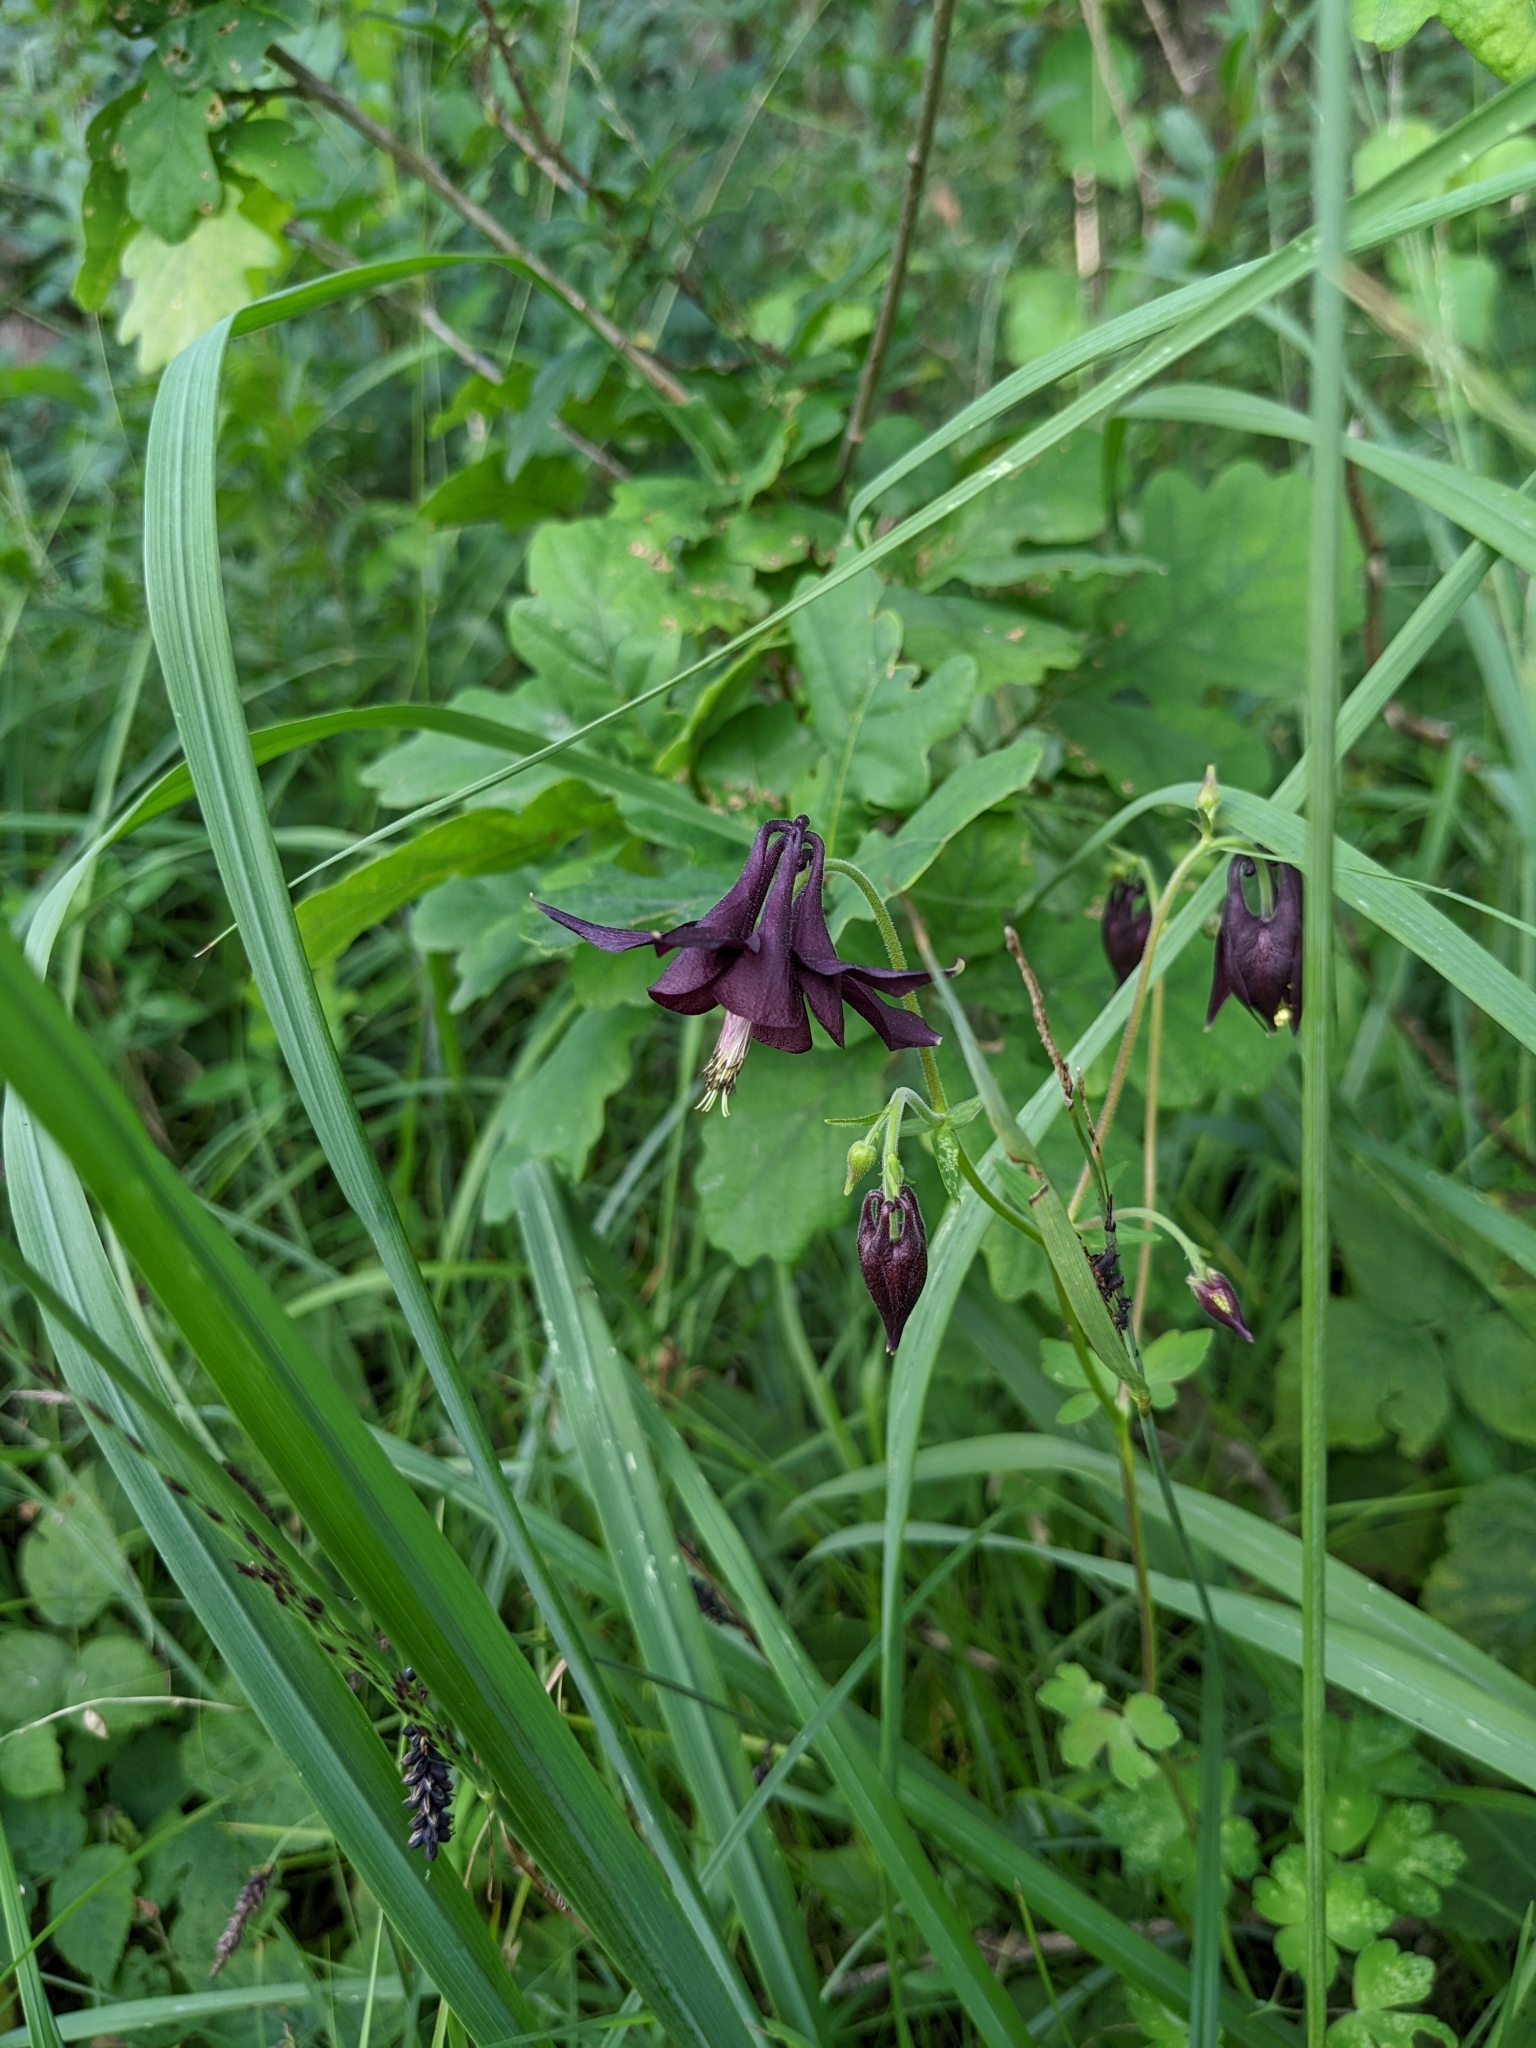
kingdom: Plantae
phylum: Tracheophyta
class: Magnoliopsida
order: Ranunculales
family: Ranunculaceae
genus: Aquilegia
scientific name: Aquilegia atrata
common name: Dark columbine
